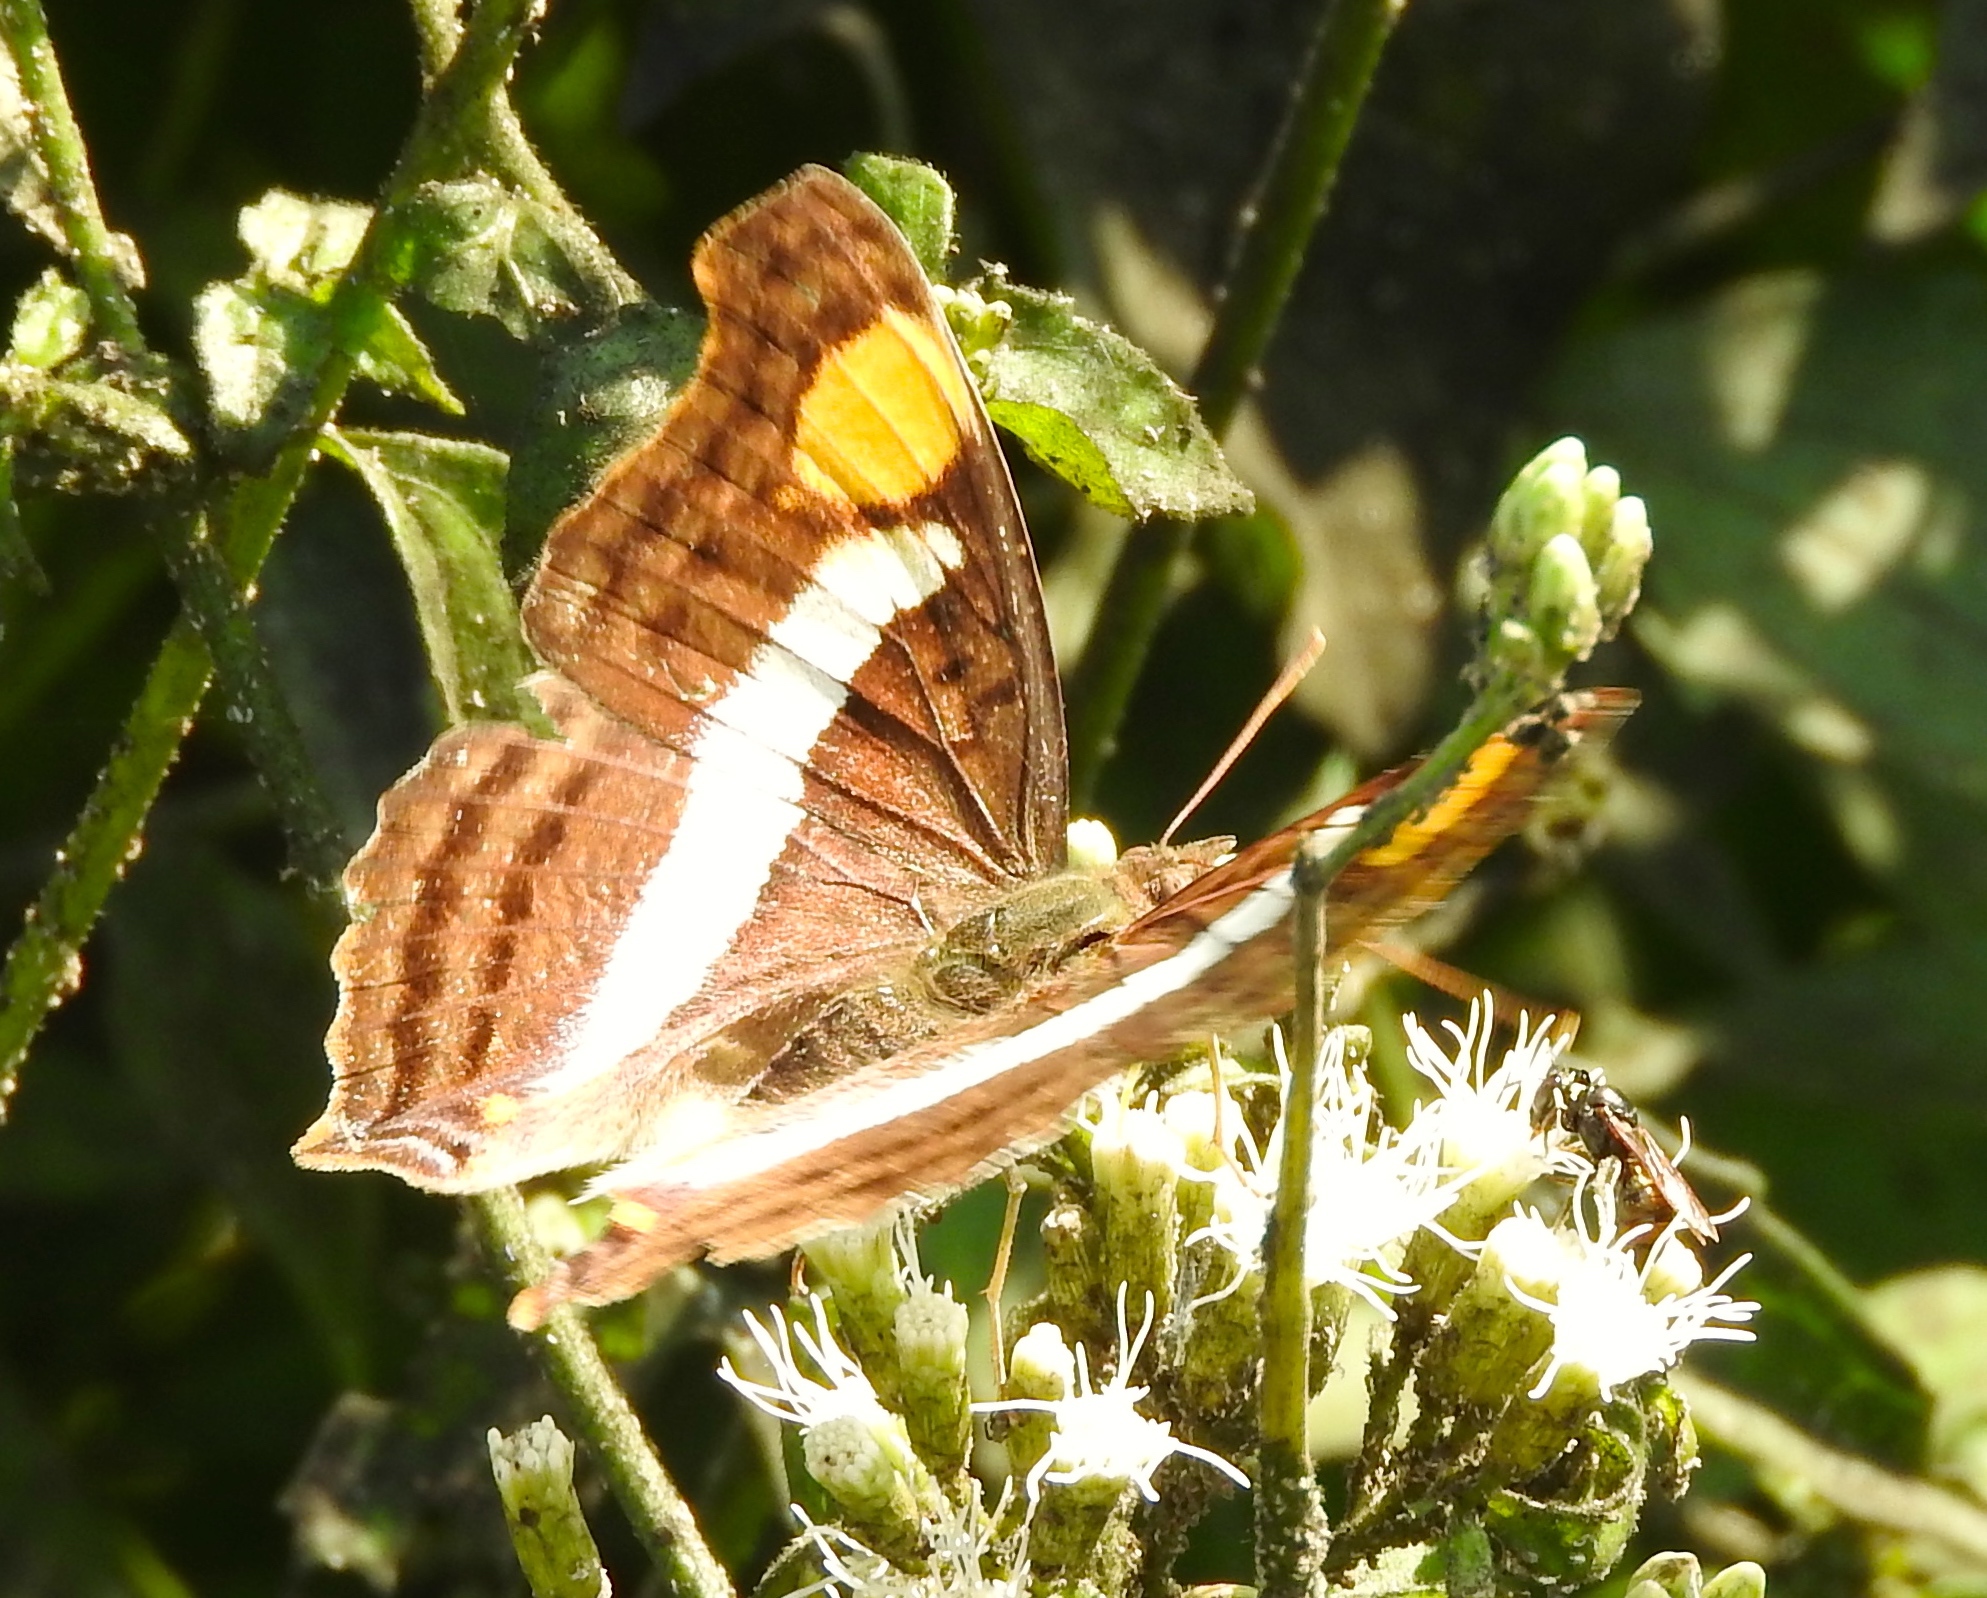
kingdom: Animalia
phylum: Arthropoda
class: Insecta
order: Lepidoptera
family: Nymphalidae
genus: Doxocopa
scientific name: Doxocopa laure
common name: Silver emperor
